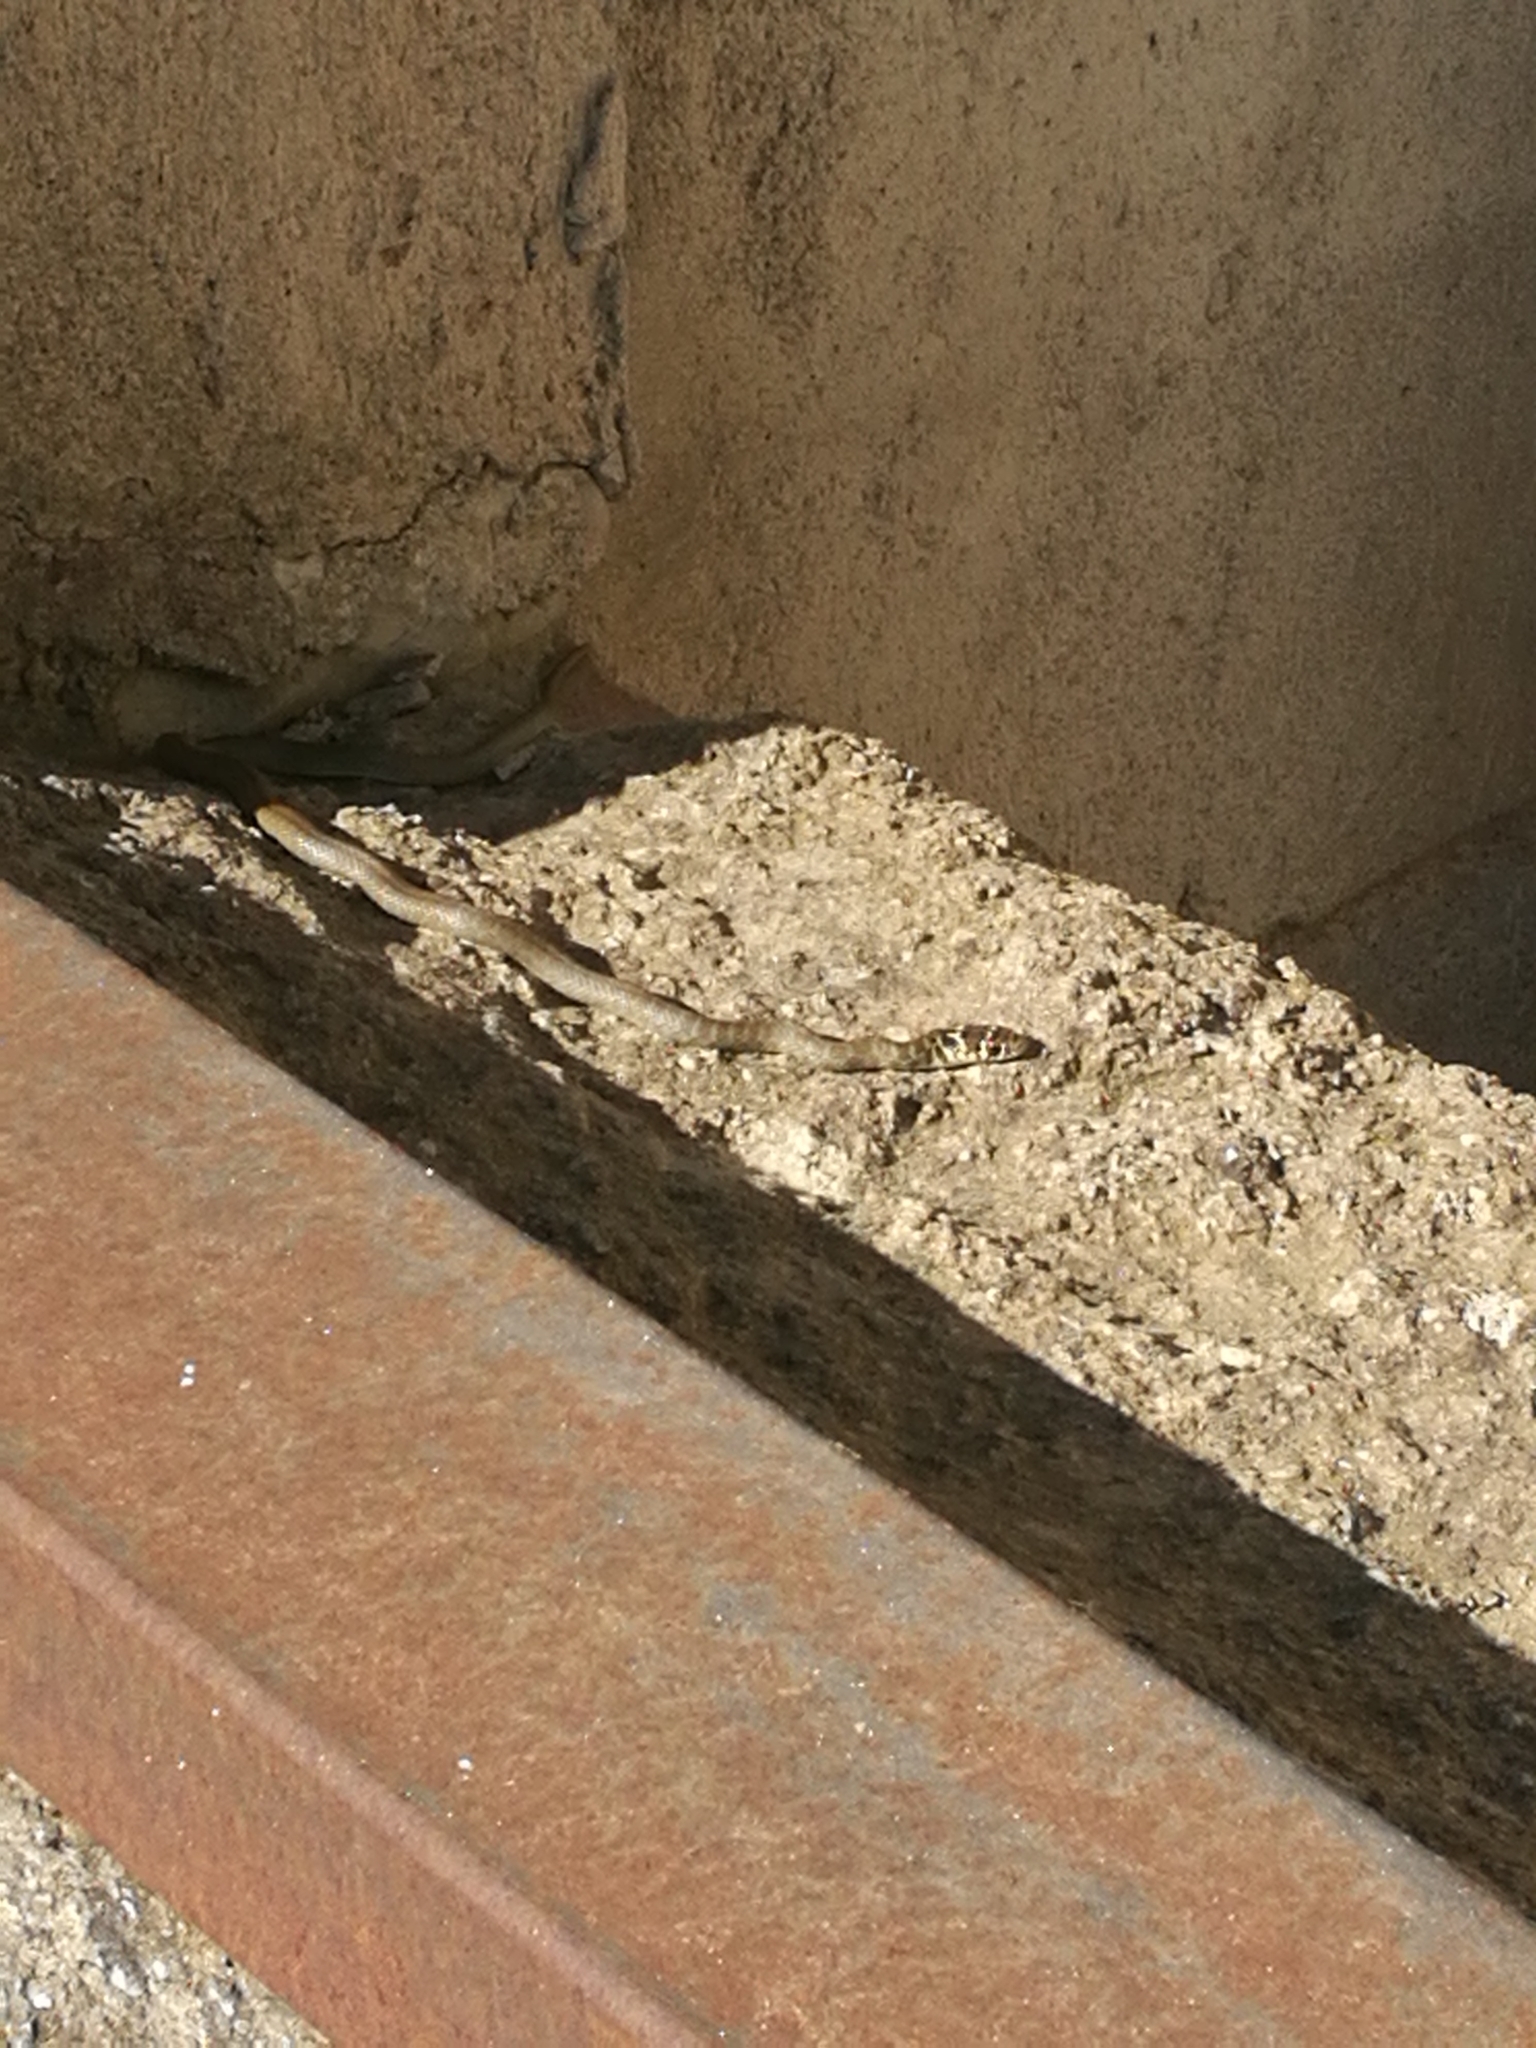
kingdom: Animalia
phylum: Chordata
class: Squamata
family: Colubridae
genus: Hierophis
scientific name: Hierophis viridiflavus
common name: Green whip snake
